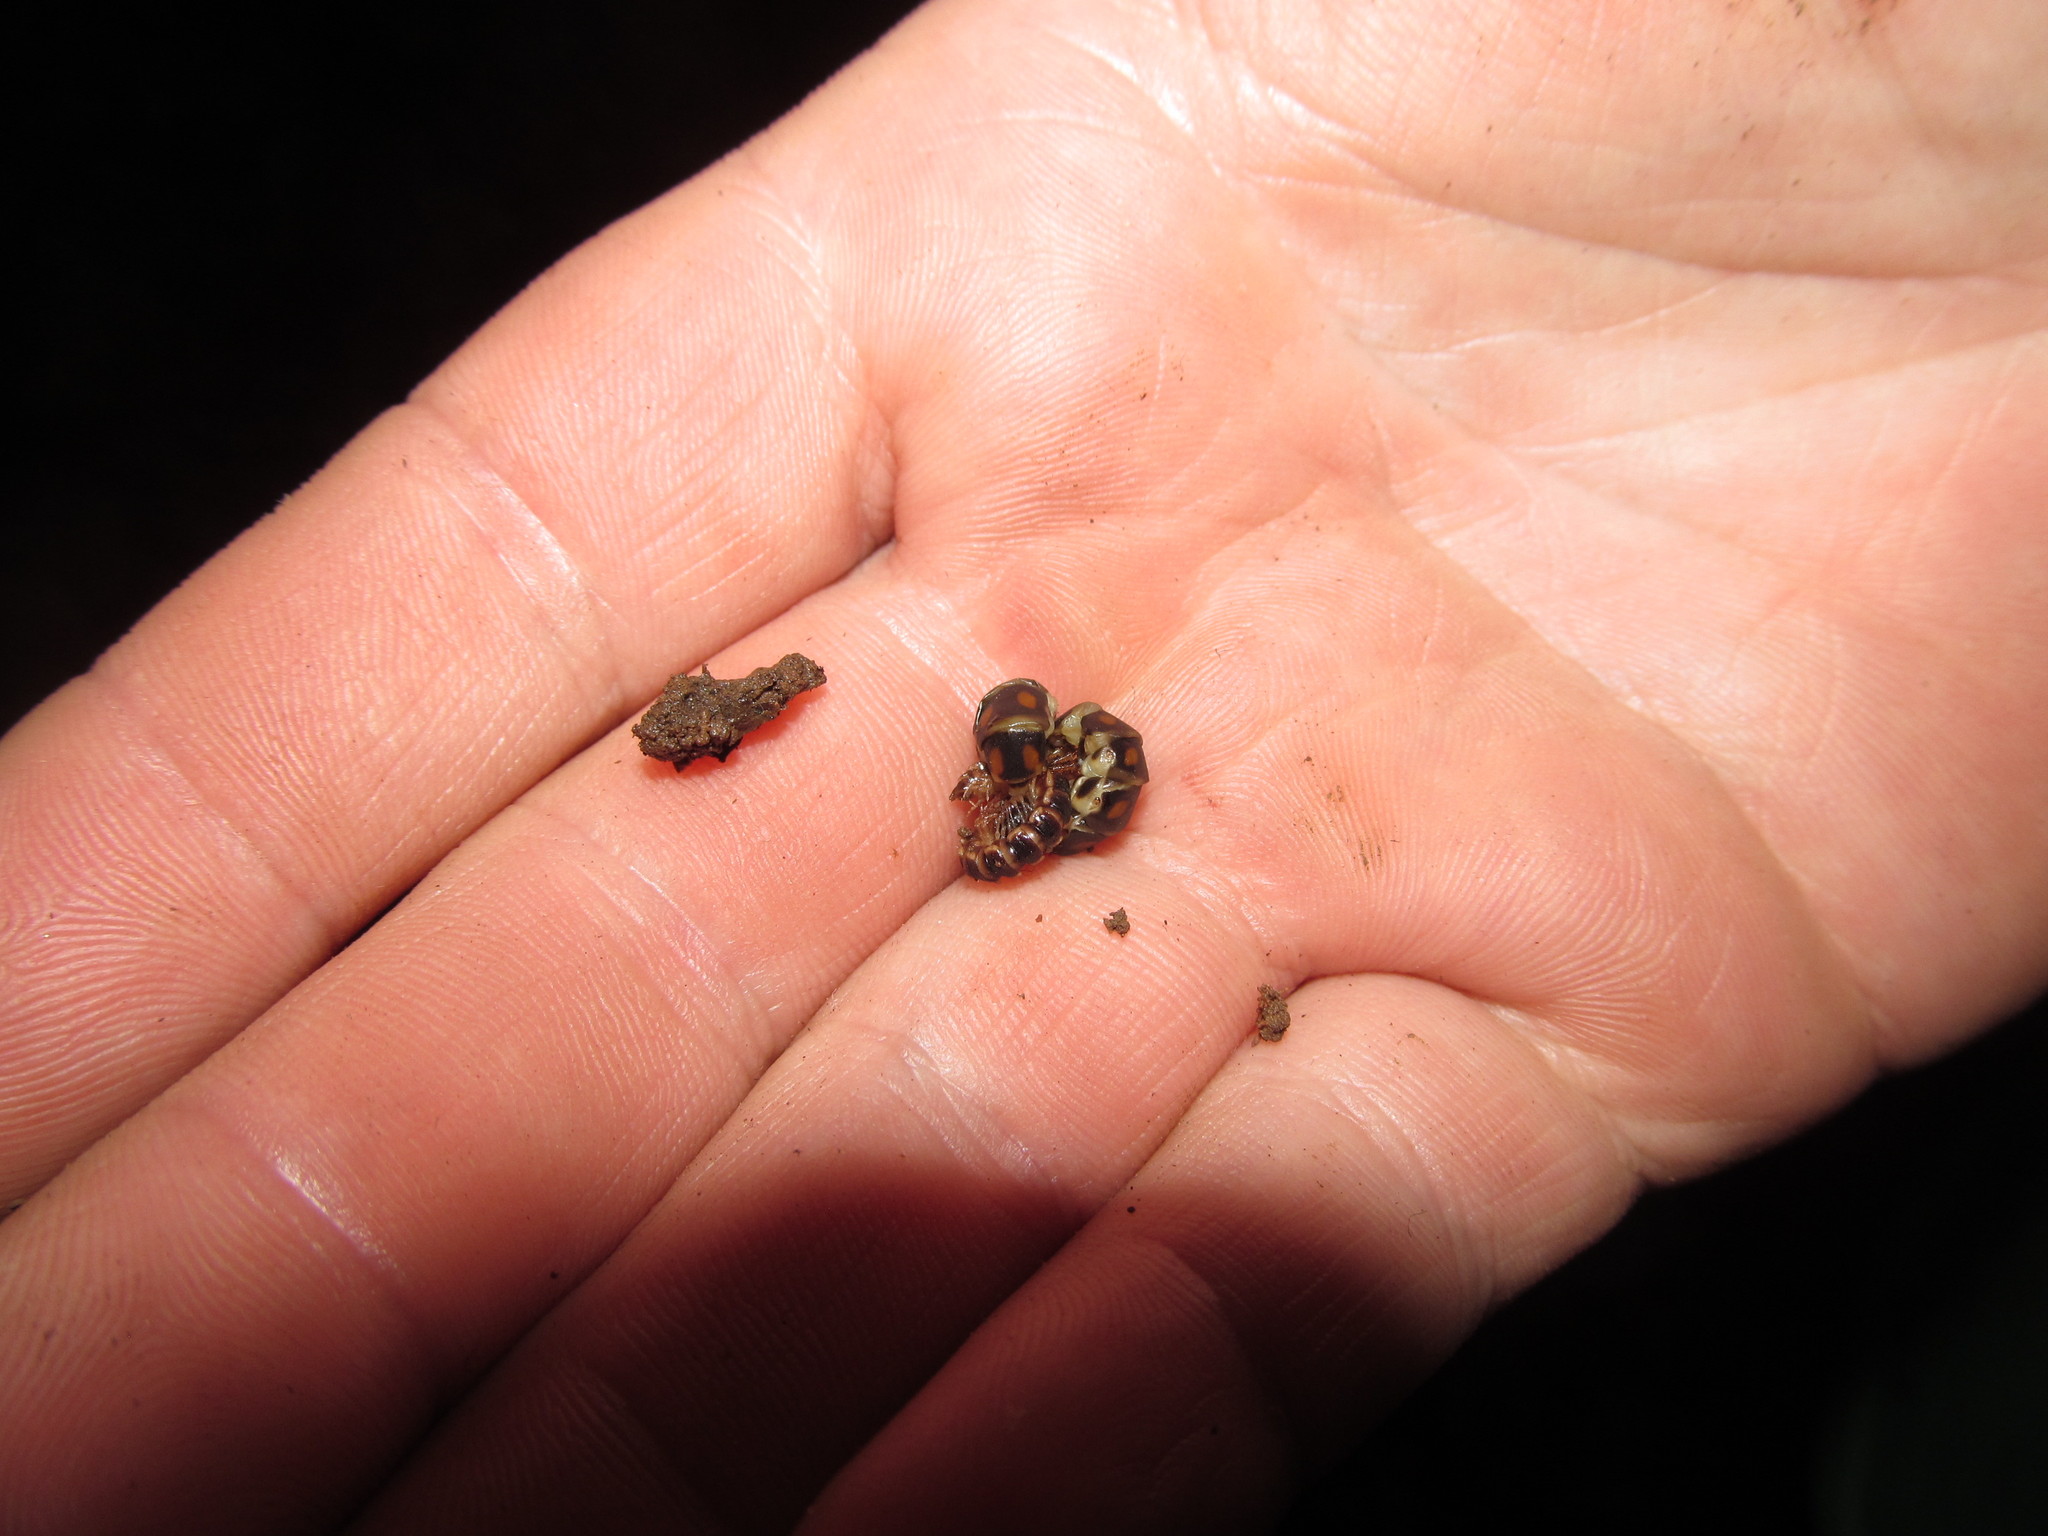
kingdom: Animalia
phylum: Arthropoda
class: Diplopoda
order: Polydesmida
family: Paradoxosomatidae
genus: Oxidus
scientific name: Oxidus gracilis
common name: Greenhouse millipede
